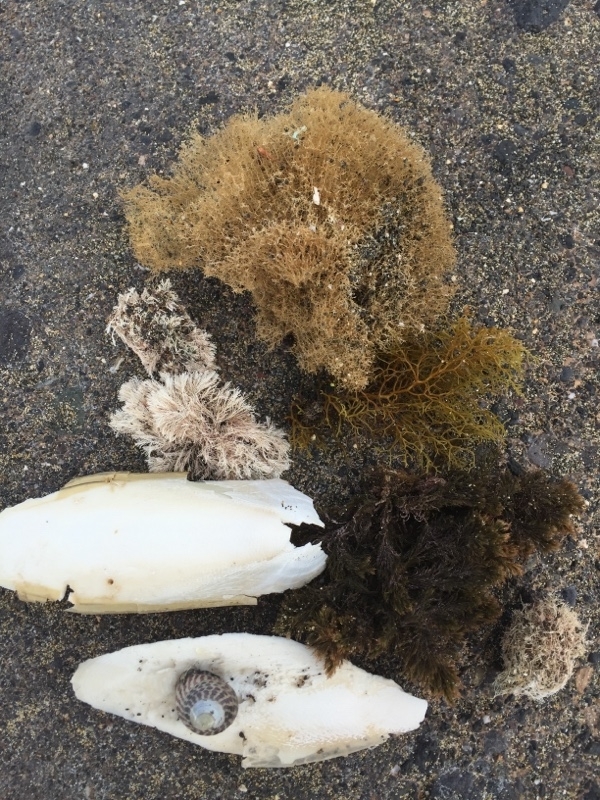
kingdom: Animalia
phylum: Mollusca
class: Cephalopoda
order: Sepiida
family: Sepiidae
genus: Sepia
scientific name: Sepia officinalis
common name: Common cuttlefish
